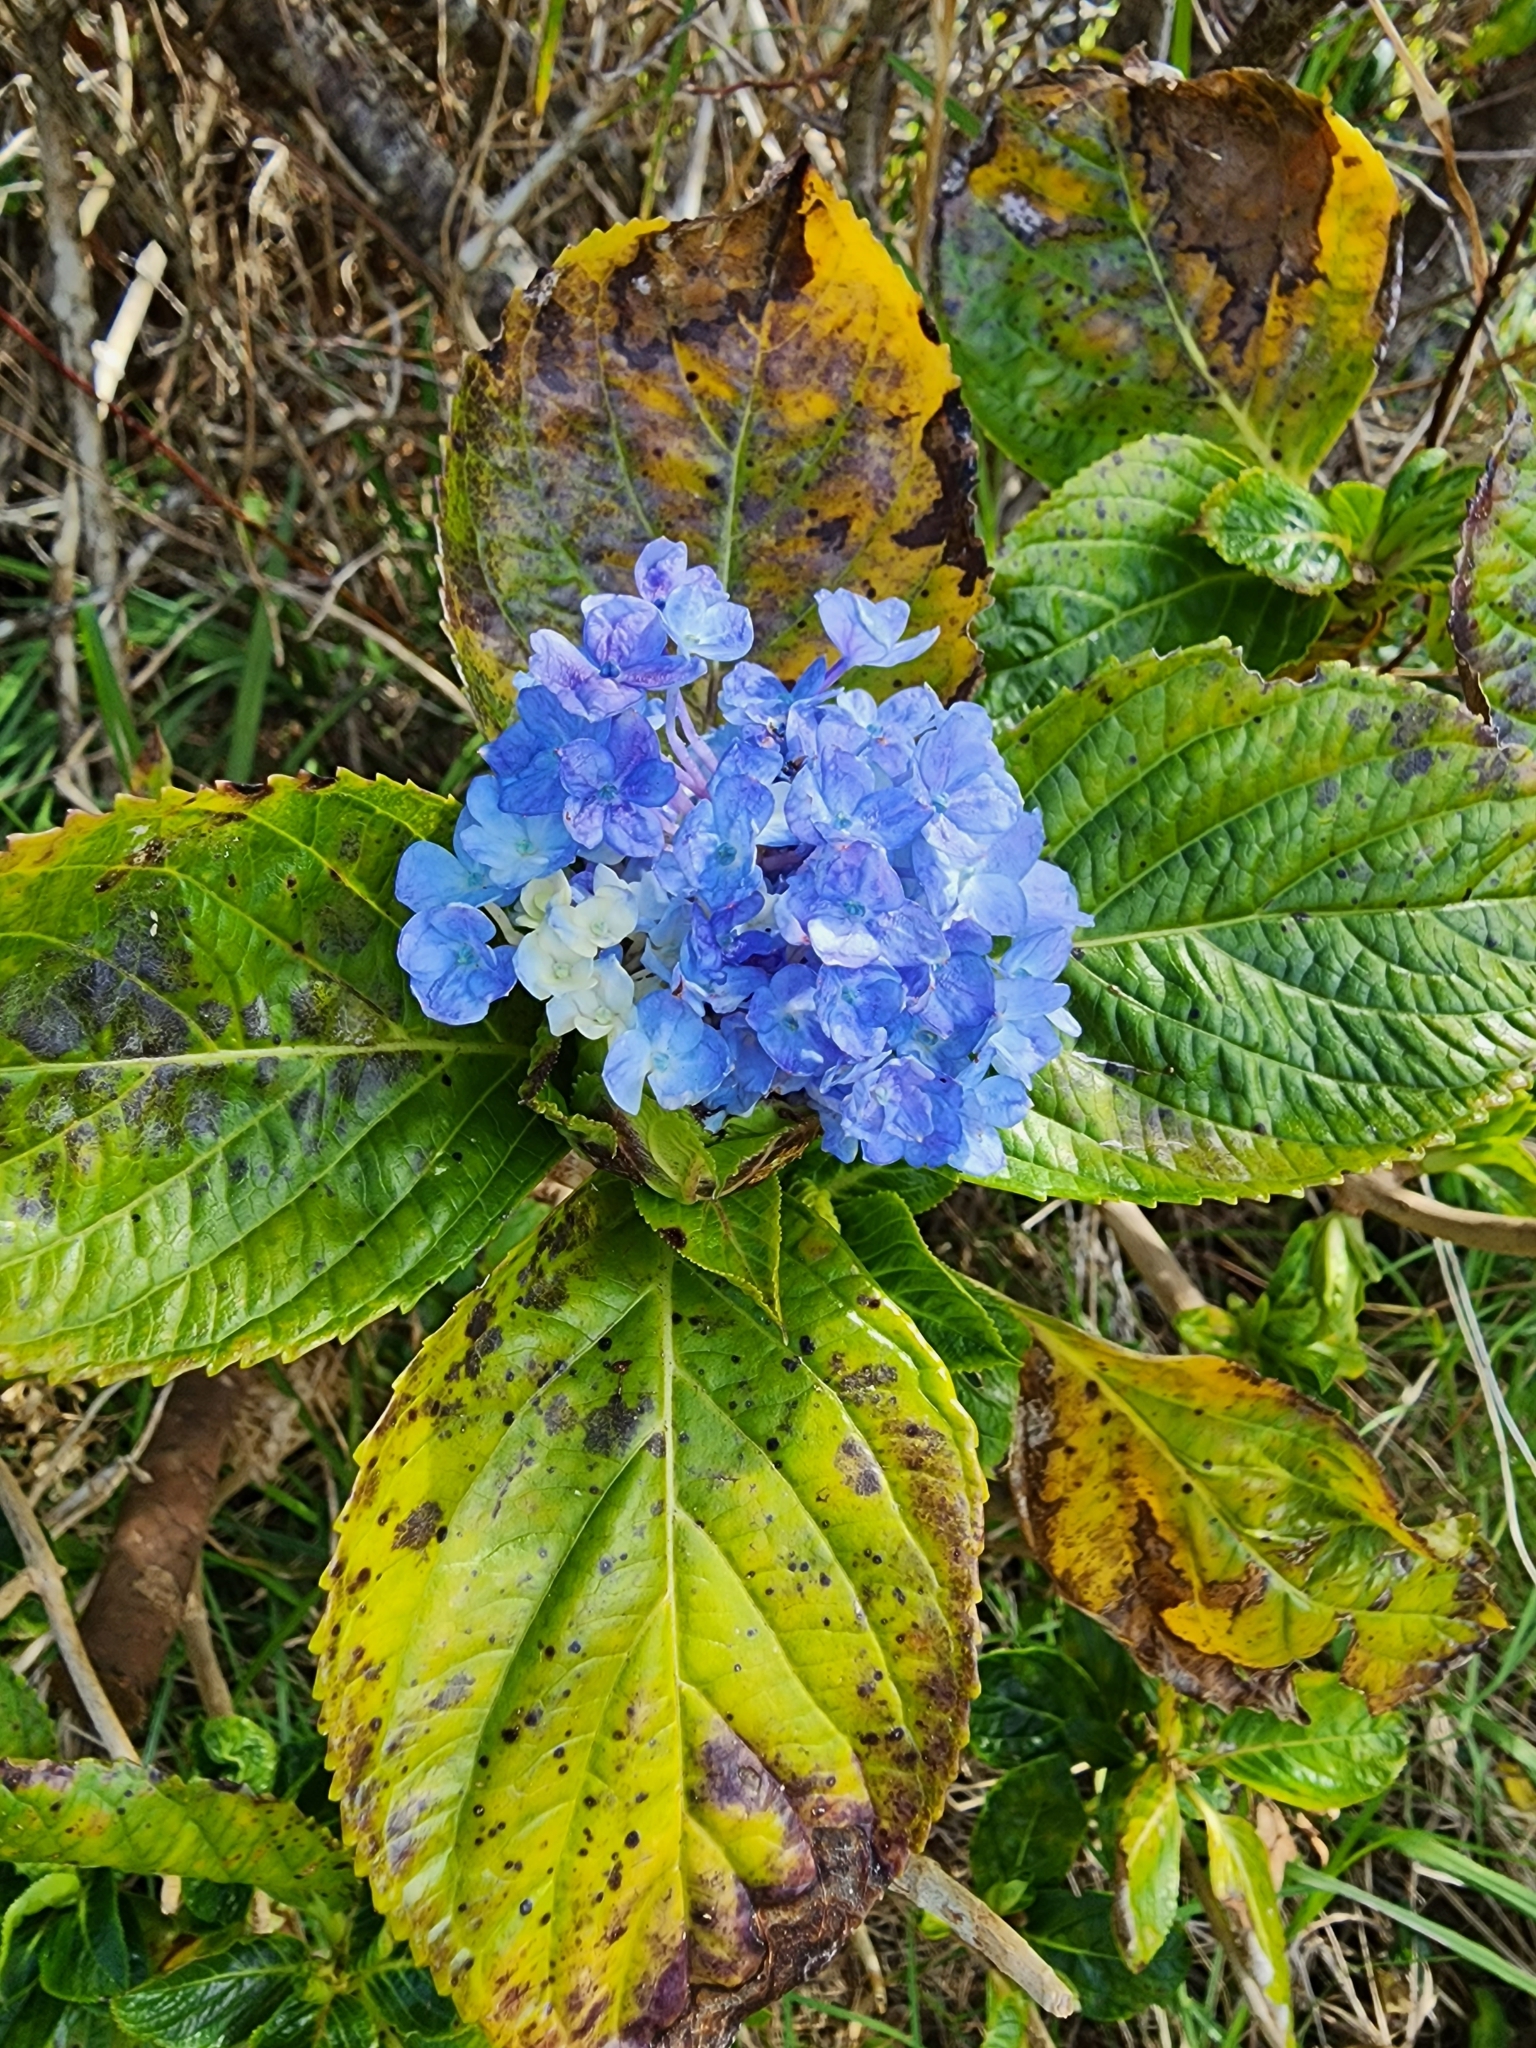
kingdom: Plantae
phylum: Tracheophyta
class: Magnoliopsida
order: Cornales
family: Hydrangeaceae
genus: Hydrangea
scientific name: Hydrangea macrophylla
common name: Hydrangea
